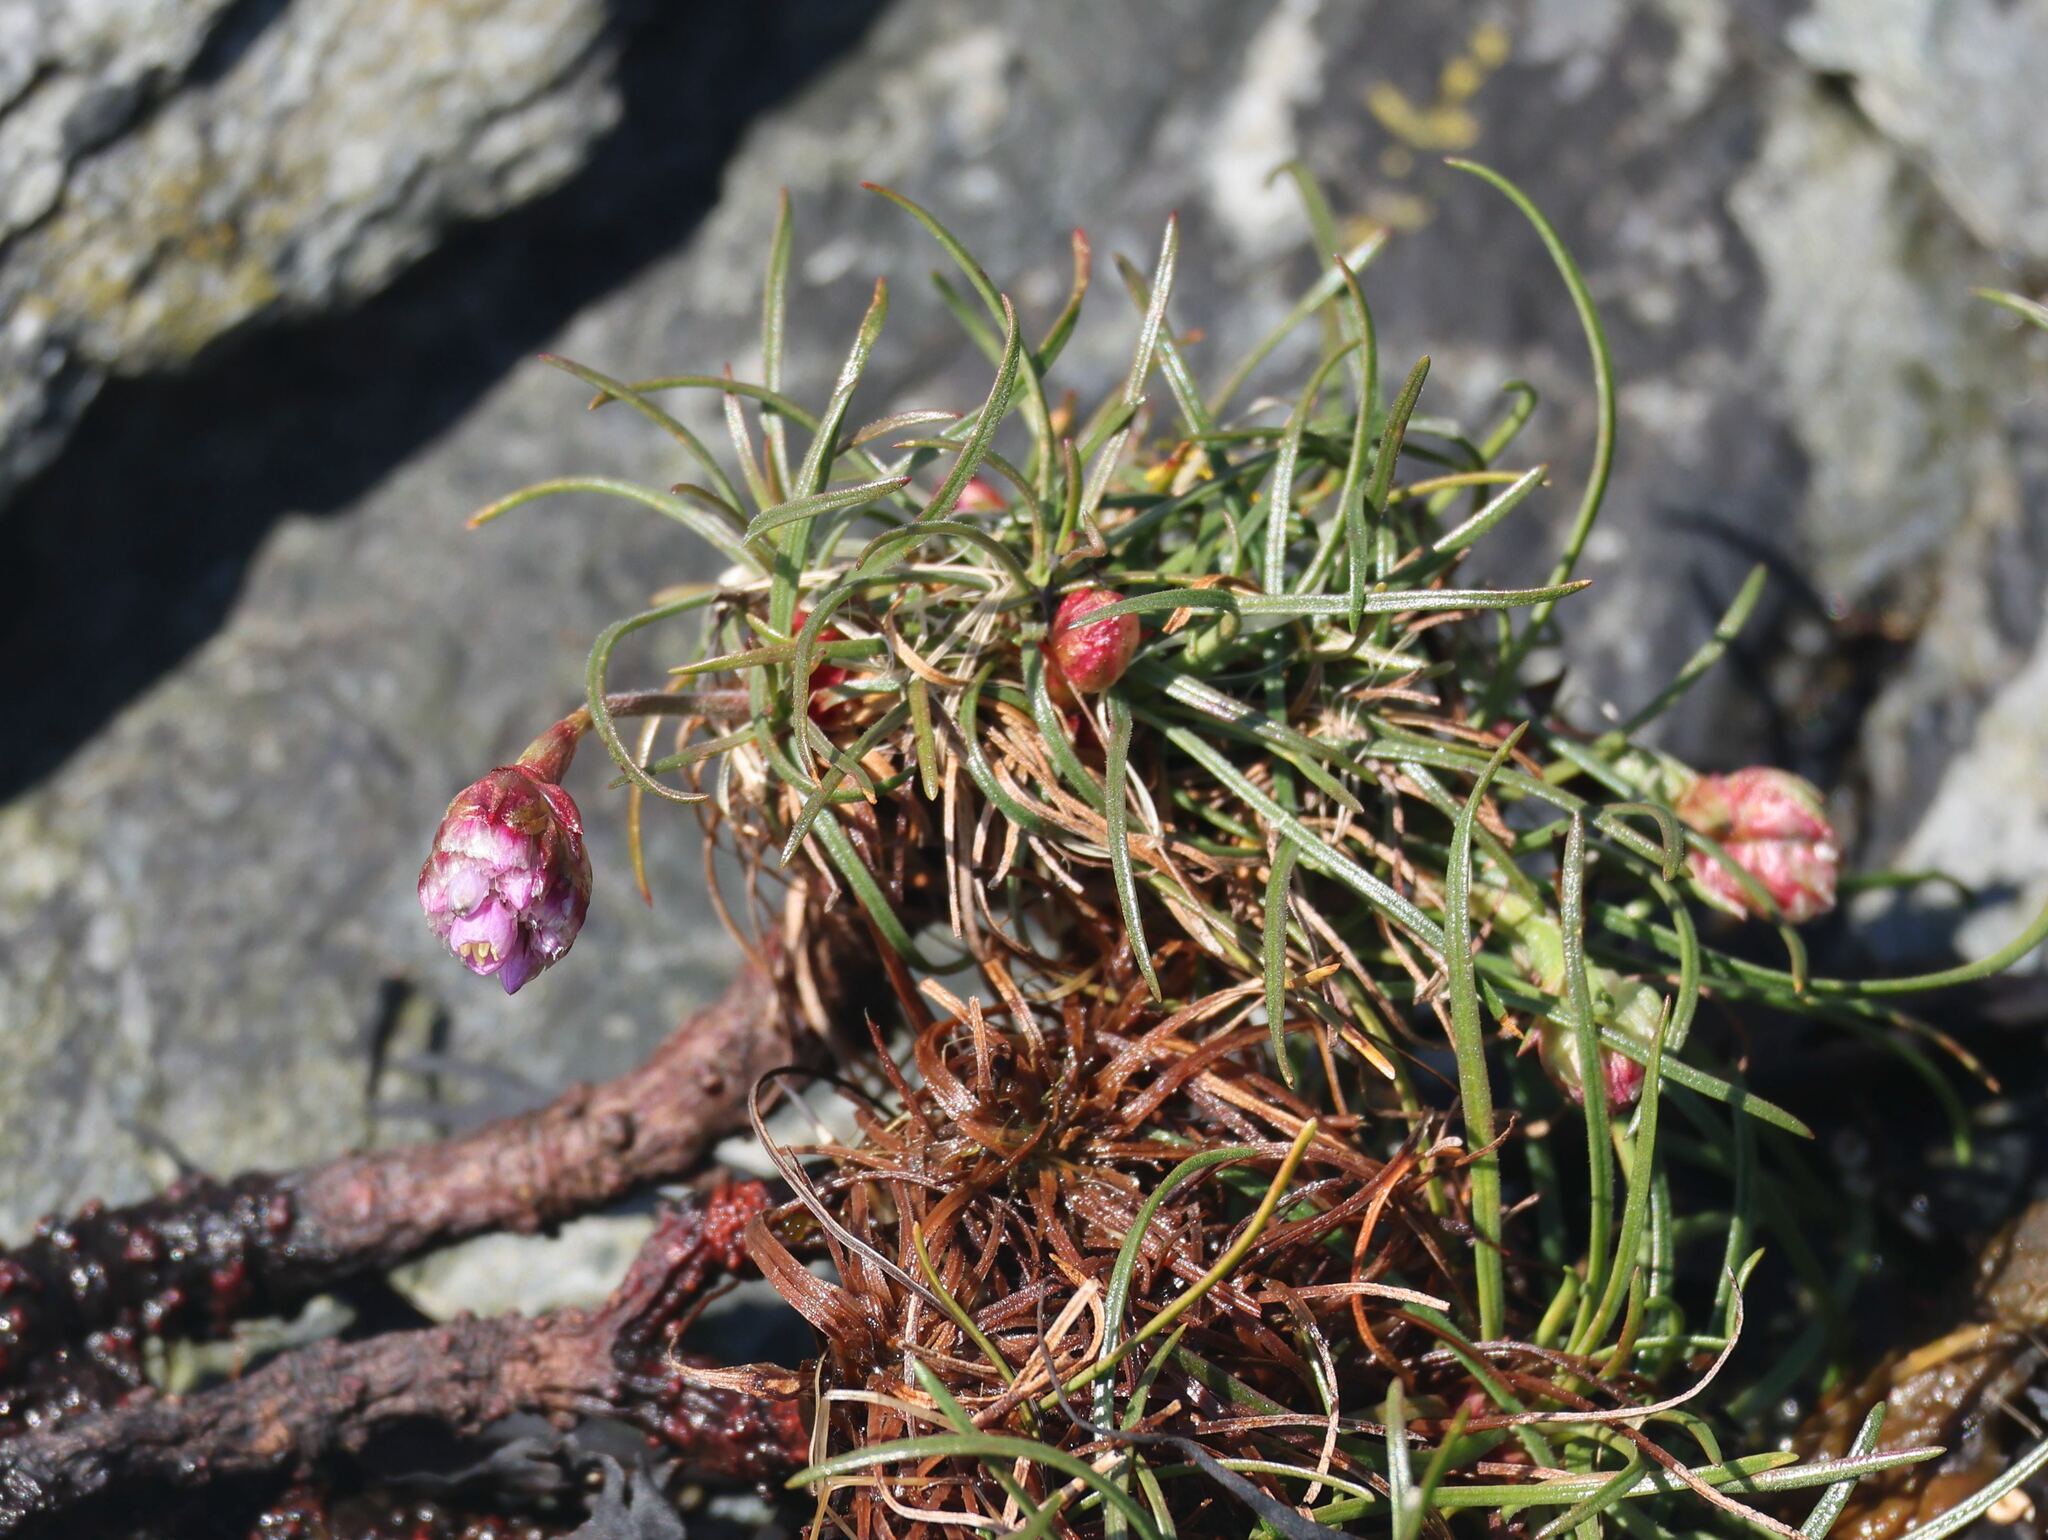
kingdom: Plantae
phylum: Tracheophyta
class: Magnoliopsida
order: Caryophyllales
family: Plumbaginaceae
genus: Armeria
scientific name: Armeria maritima
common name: Thrift
